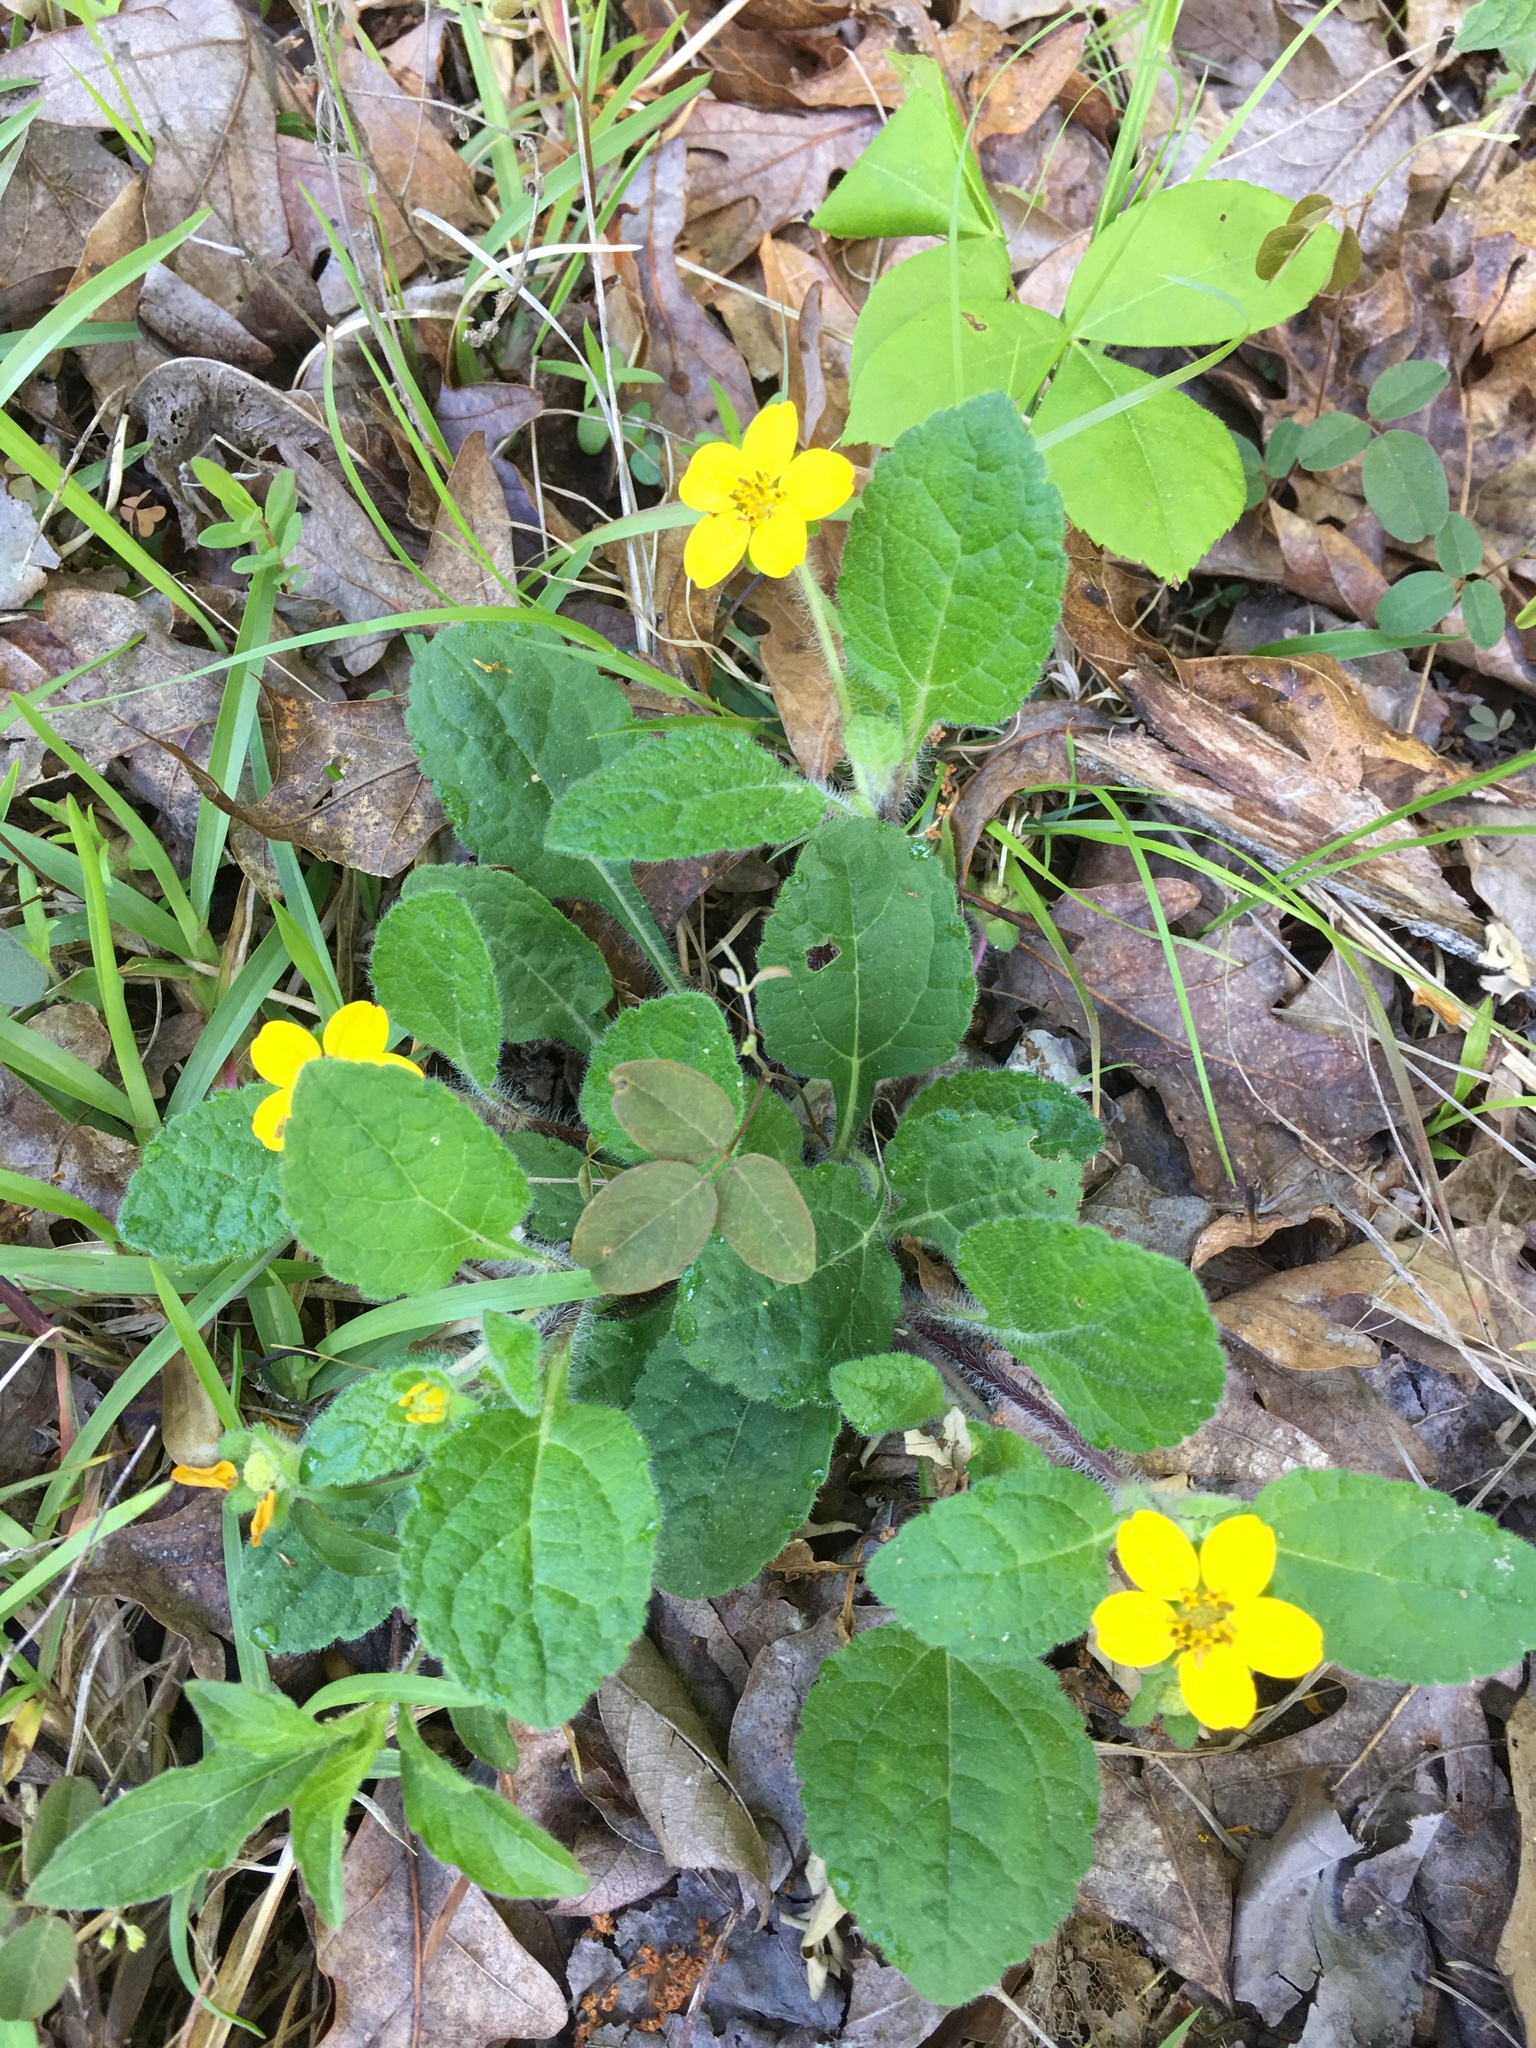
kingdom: Plantae
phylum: Tracheophyta
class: Magnoliopsida
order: Asterales
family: Asteraceae
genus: Chrysogonum
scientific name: Chrysogonum virginianum
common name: Golden-knee
